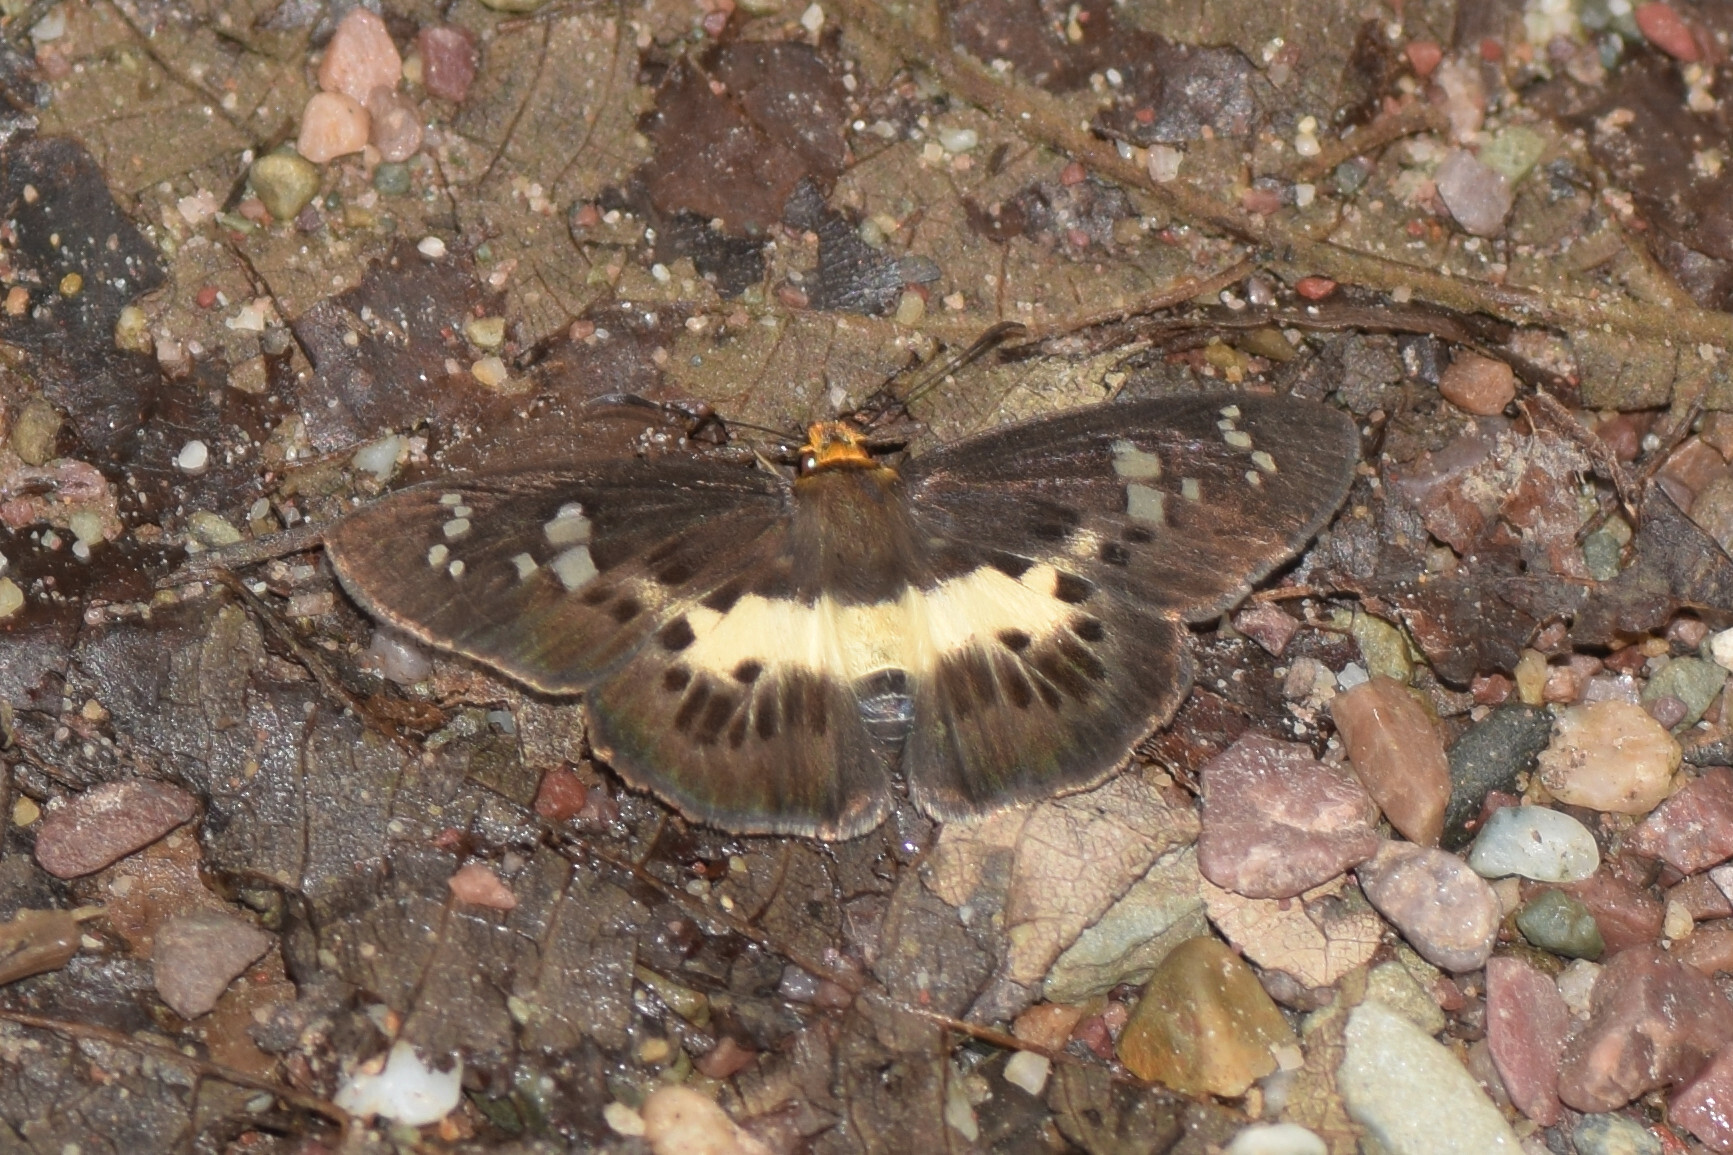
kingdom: Animalia
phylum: Arthropoda
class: Insecta
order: Lepidoptera
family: Hesperiidae
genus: Daimio
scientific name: Daimio
